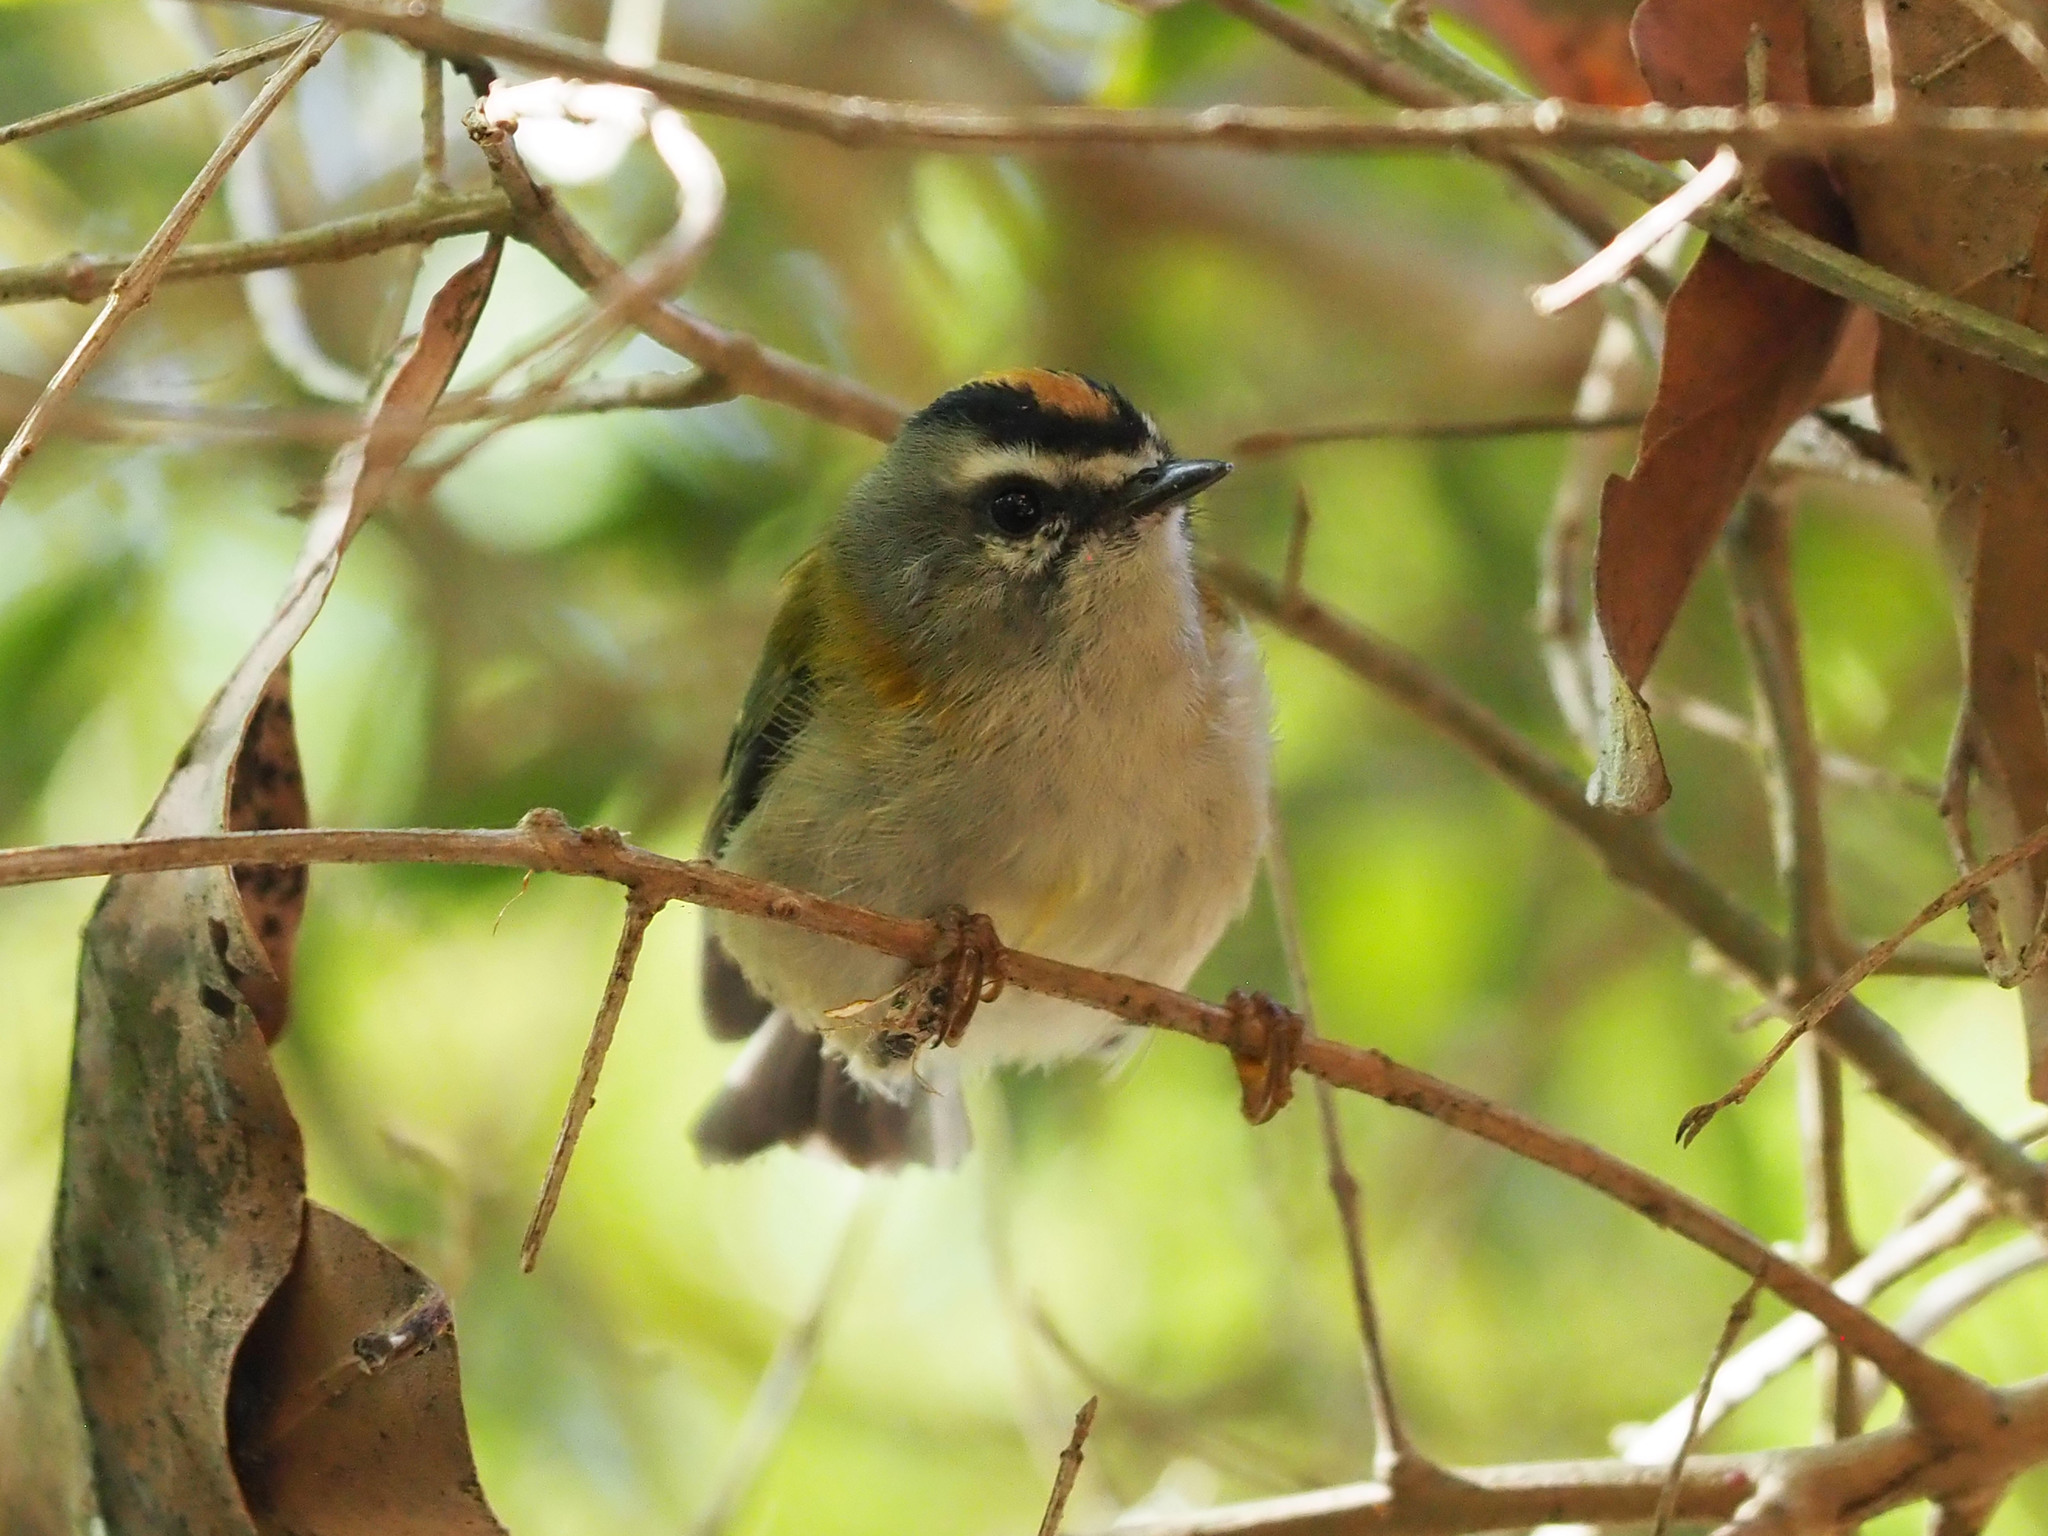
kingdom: Animalia
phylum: Chordata
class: Aves
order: Passeriformes
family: Regulidae
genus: Regulus
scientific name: Regulus madeirensis
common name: Madeira firecrest
